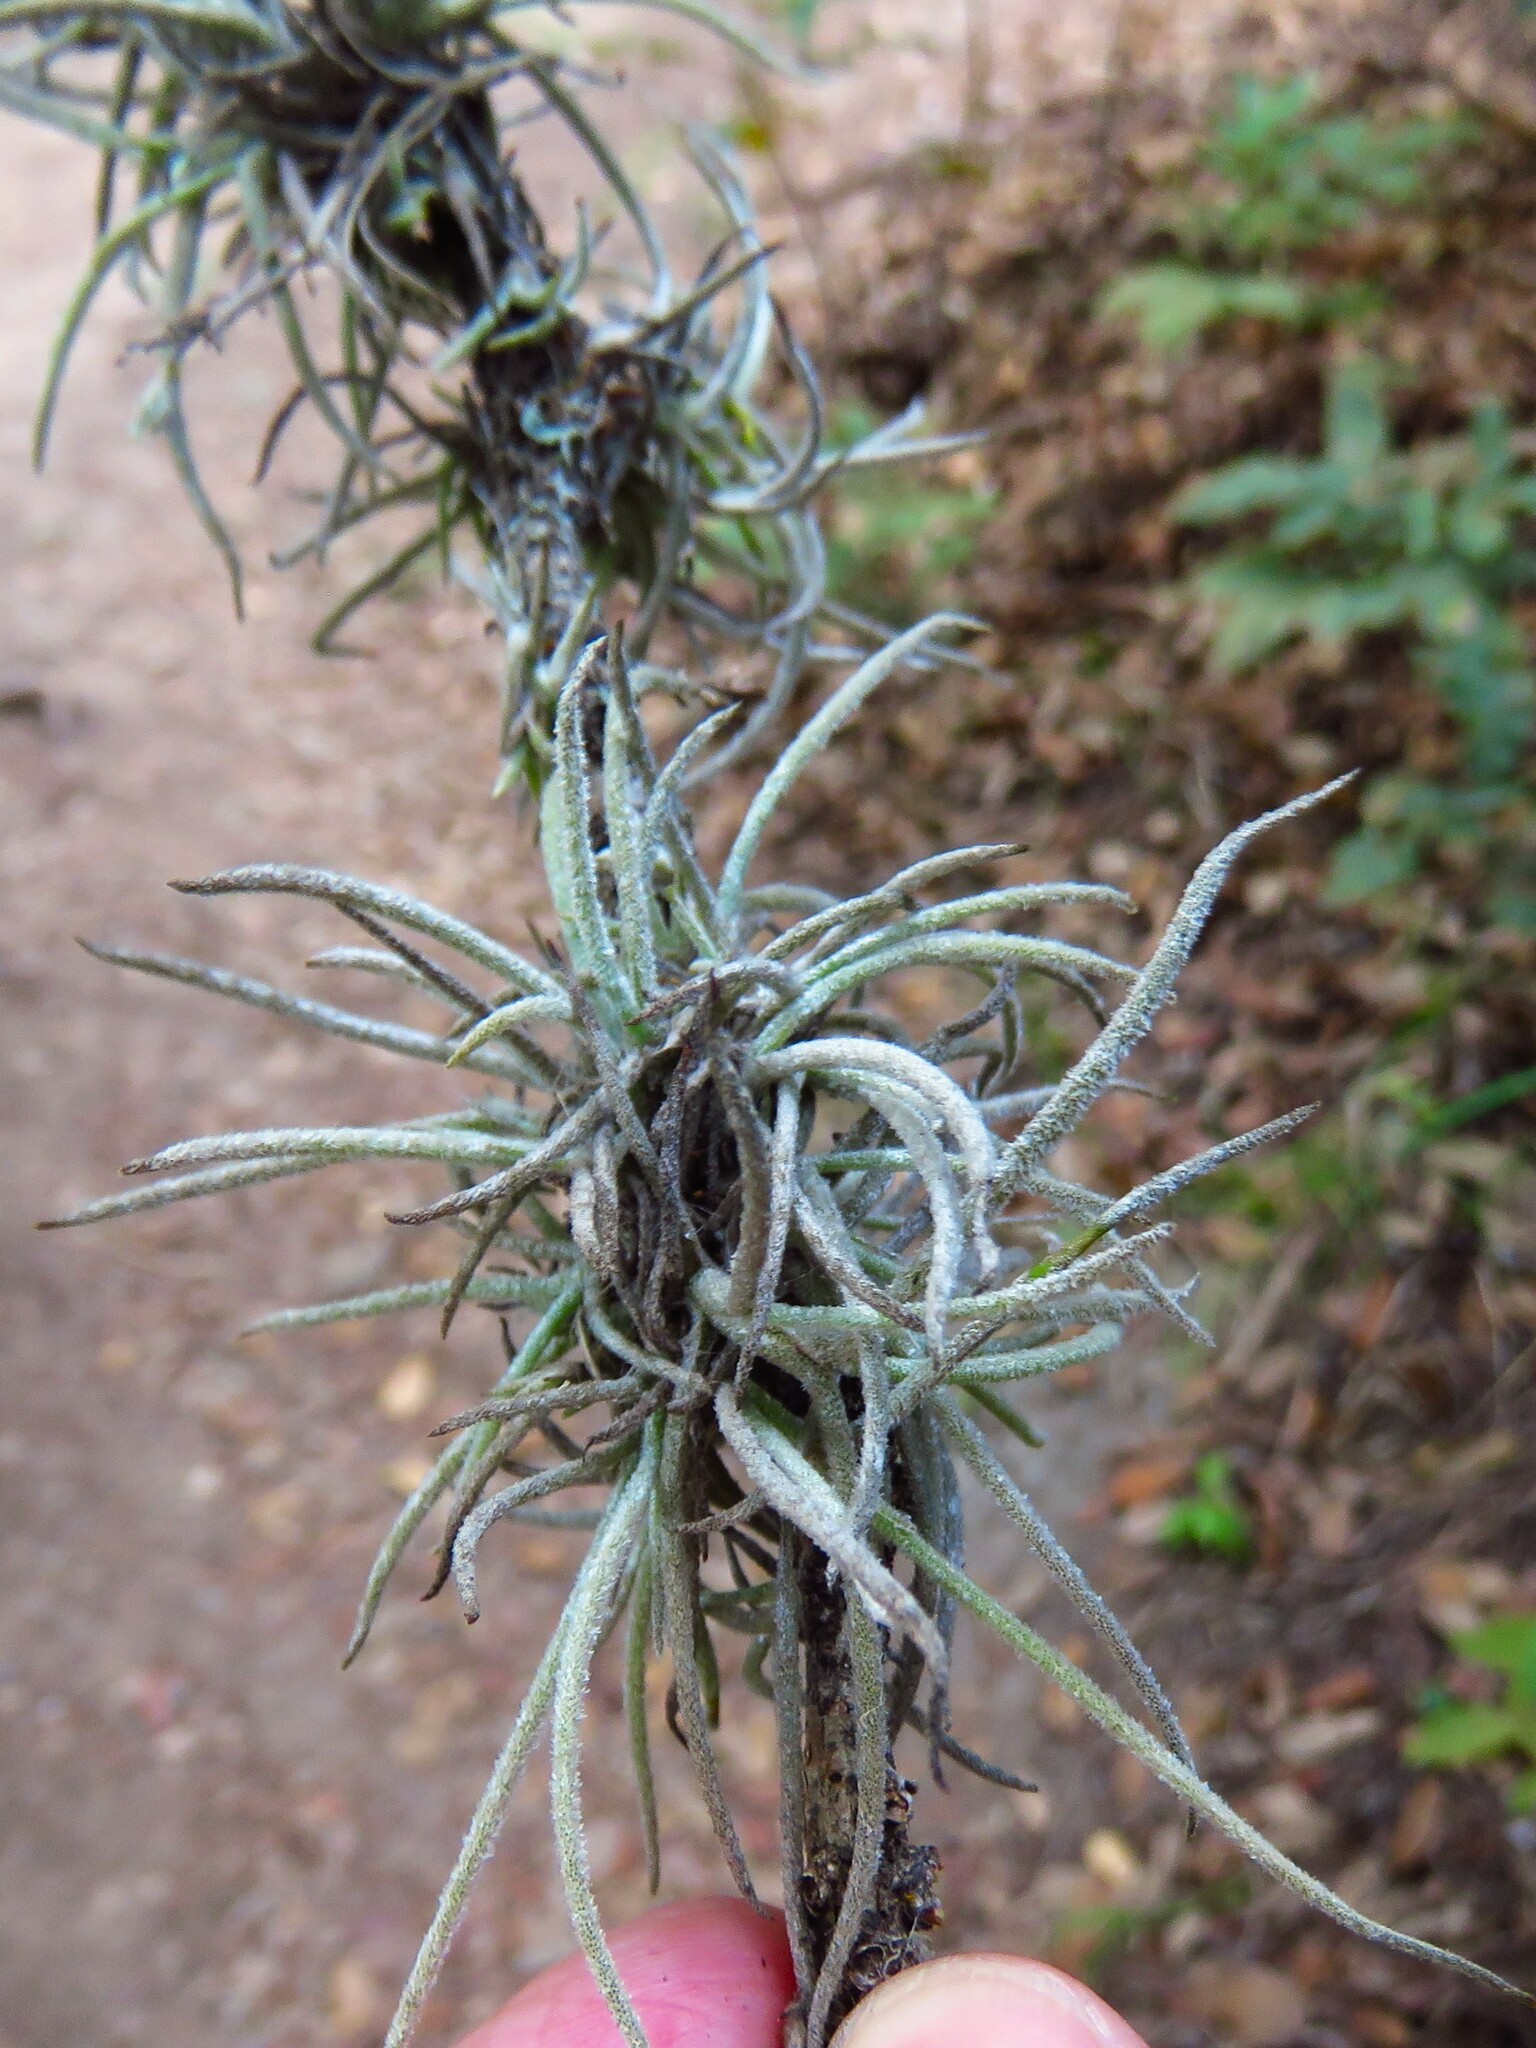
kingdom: Plantae
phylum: Tracheophyta
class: Liliopsida
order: Poales
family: Bromeliaceae
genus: Tillandsia
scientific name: Tillandsia recurvata
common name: Small ballmoss
